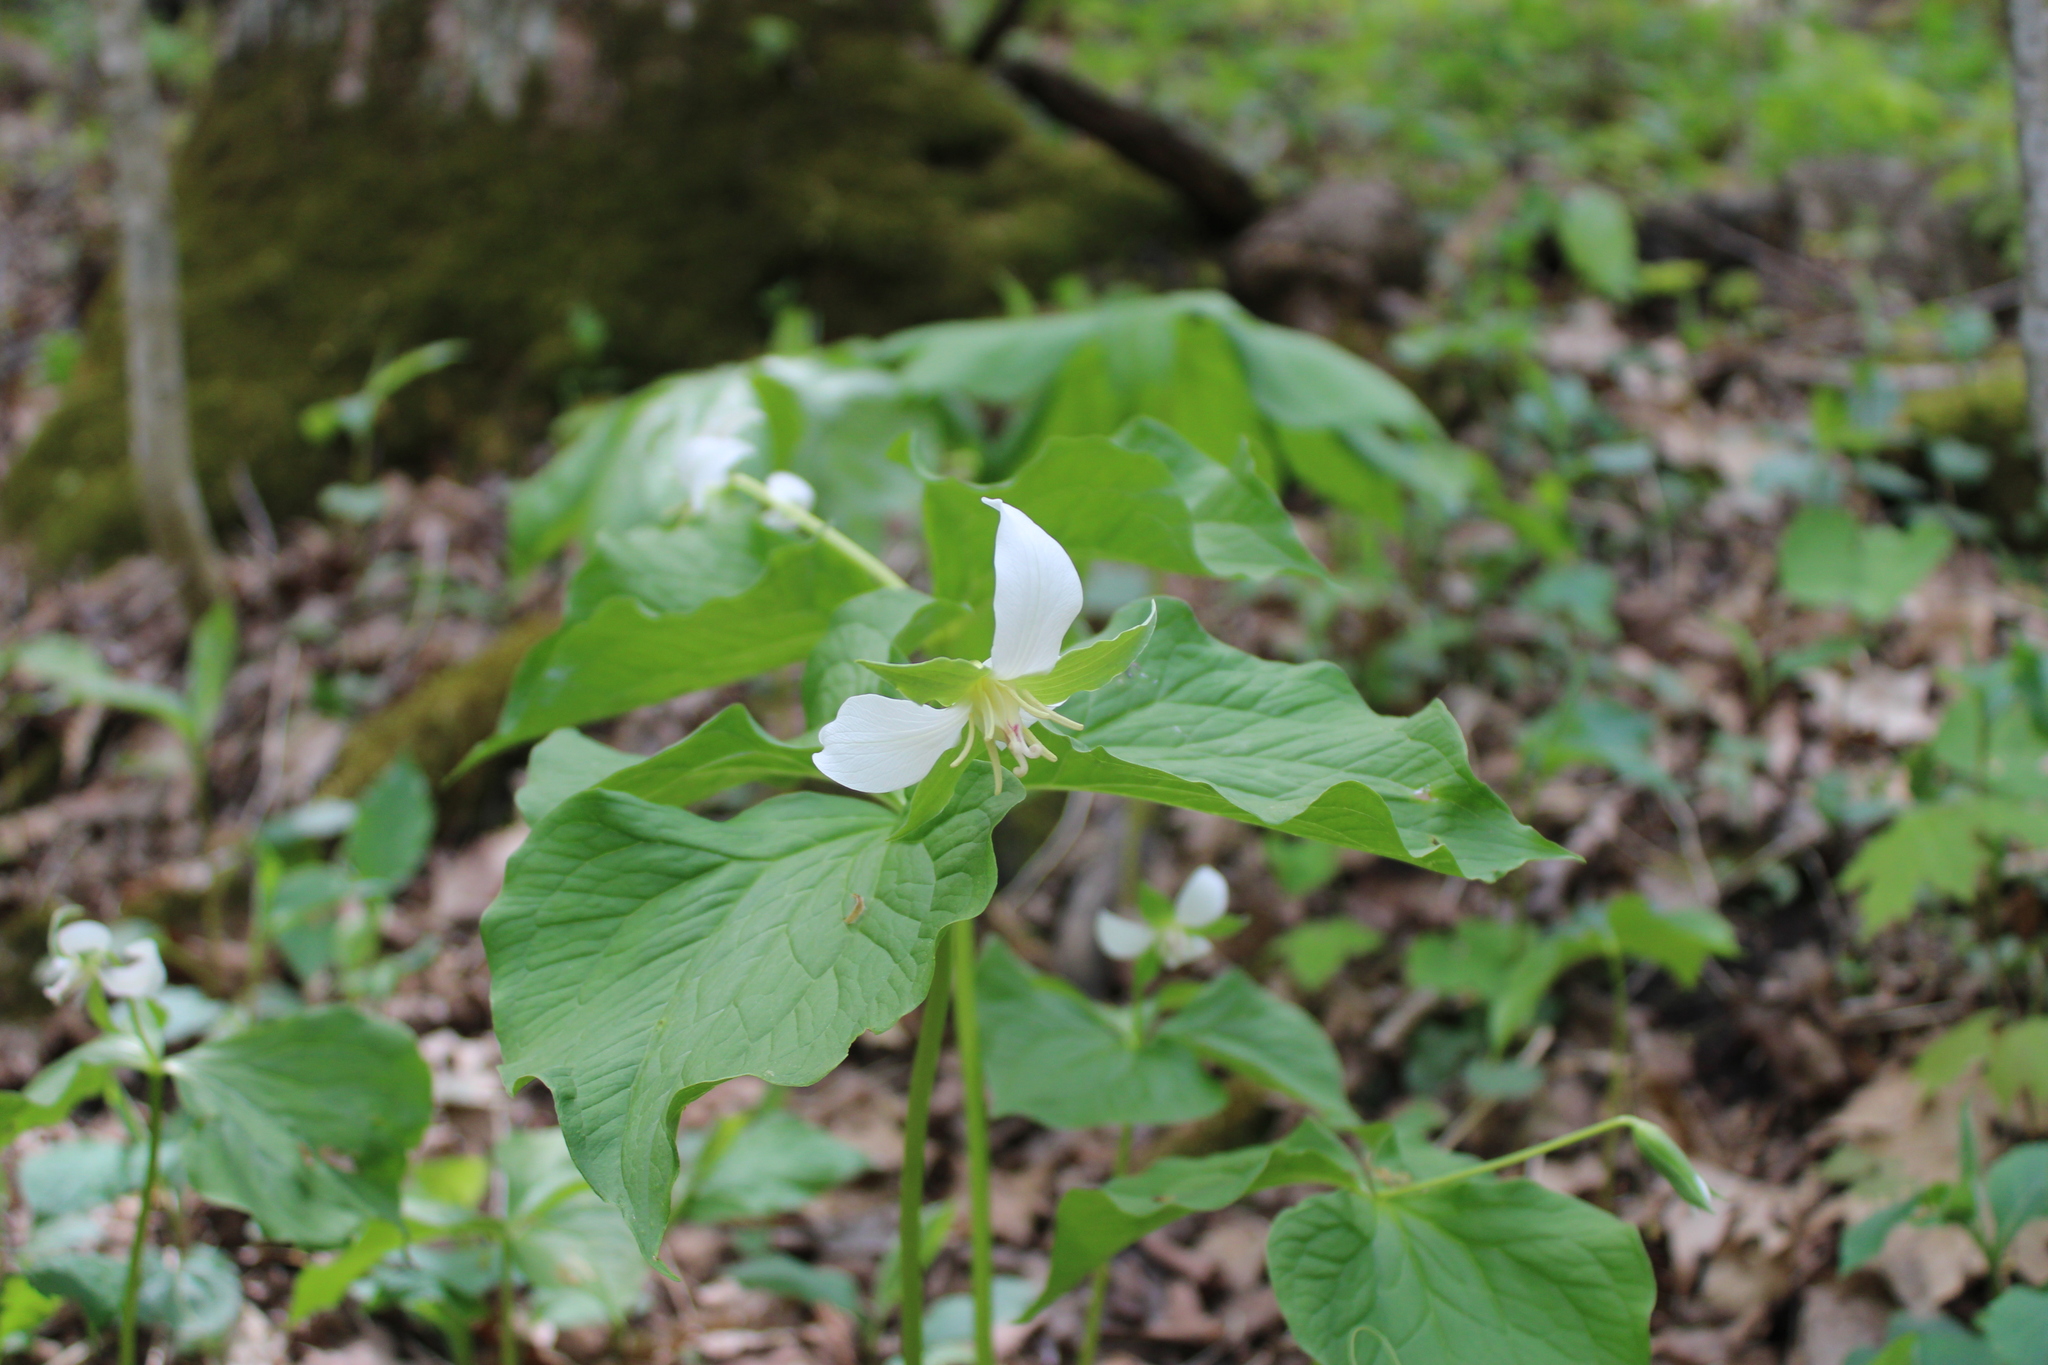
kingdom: Plantae
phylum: Tracheophyta
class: Liliopsida
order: Liliales
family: Melanthiaceae
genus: Trillium
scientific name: Trillium flexipes
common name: Drooping trillium
